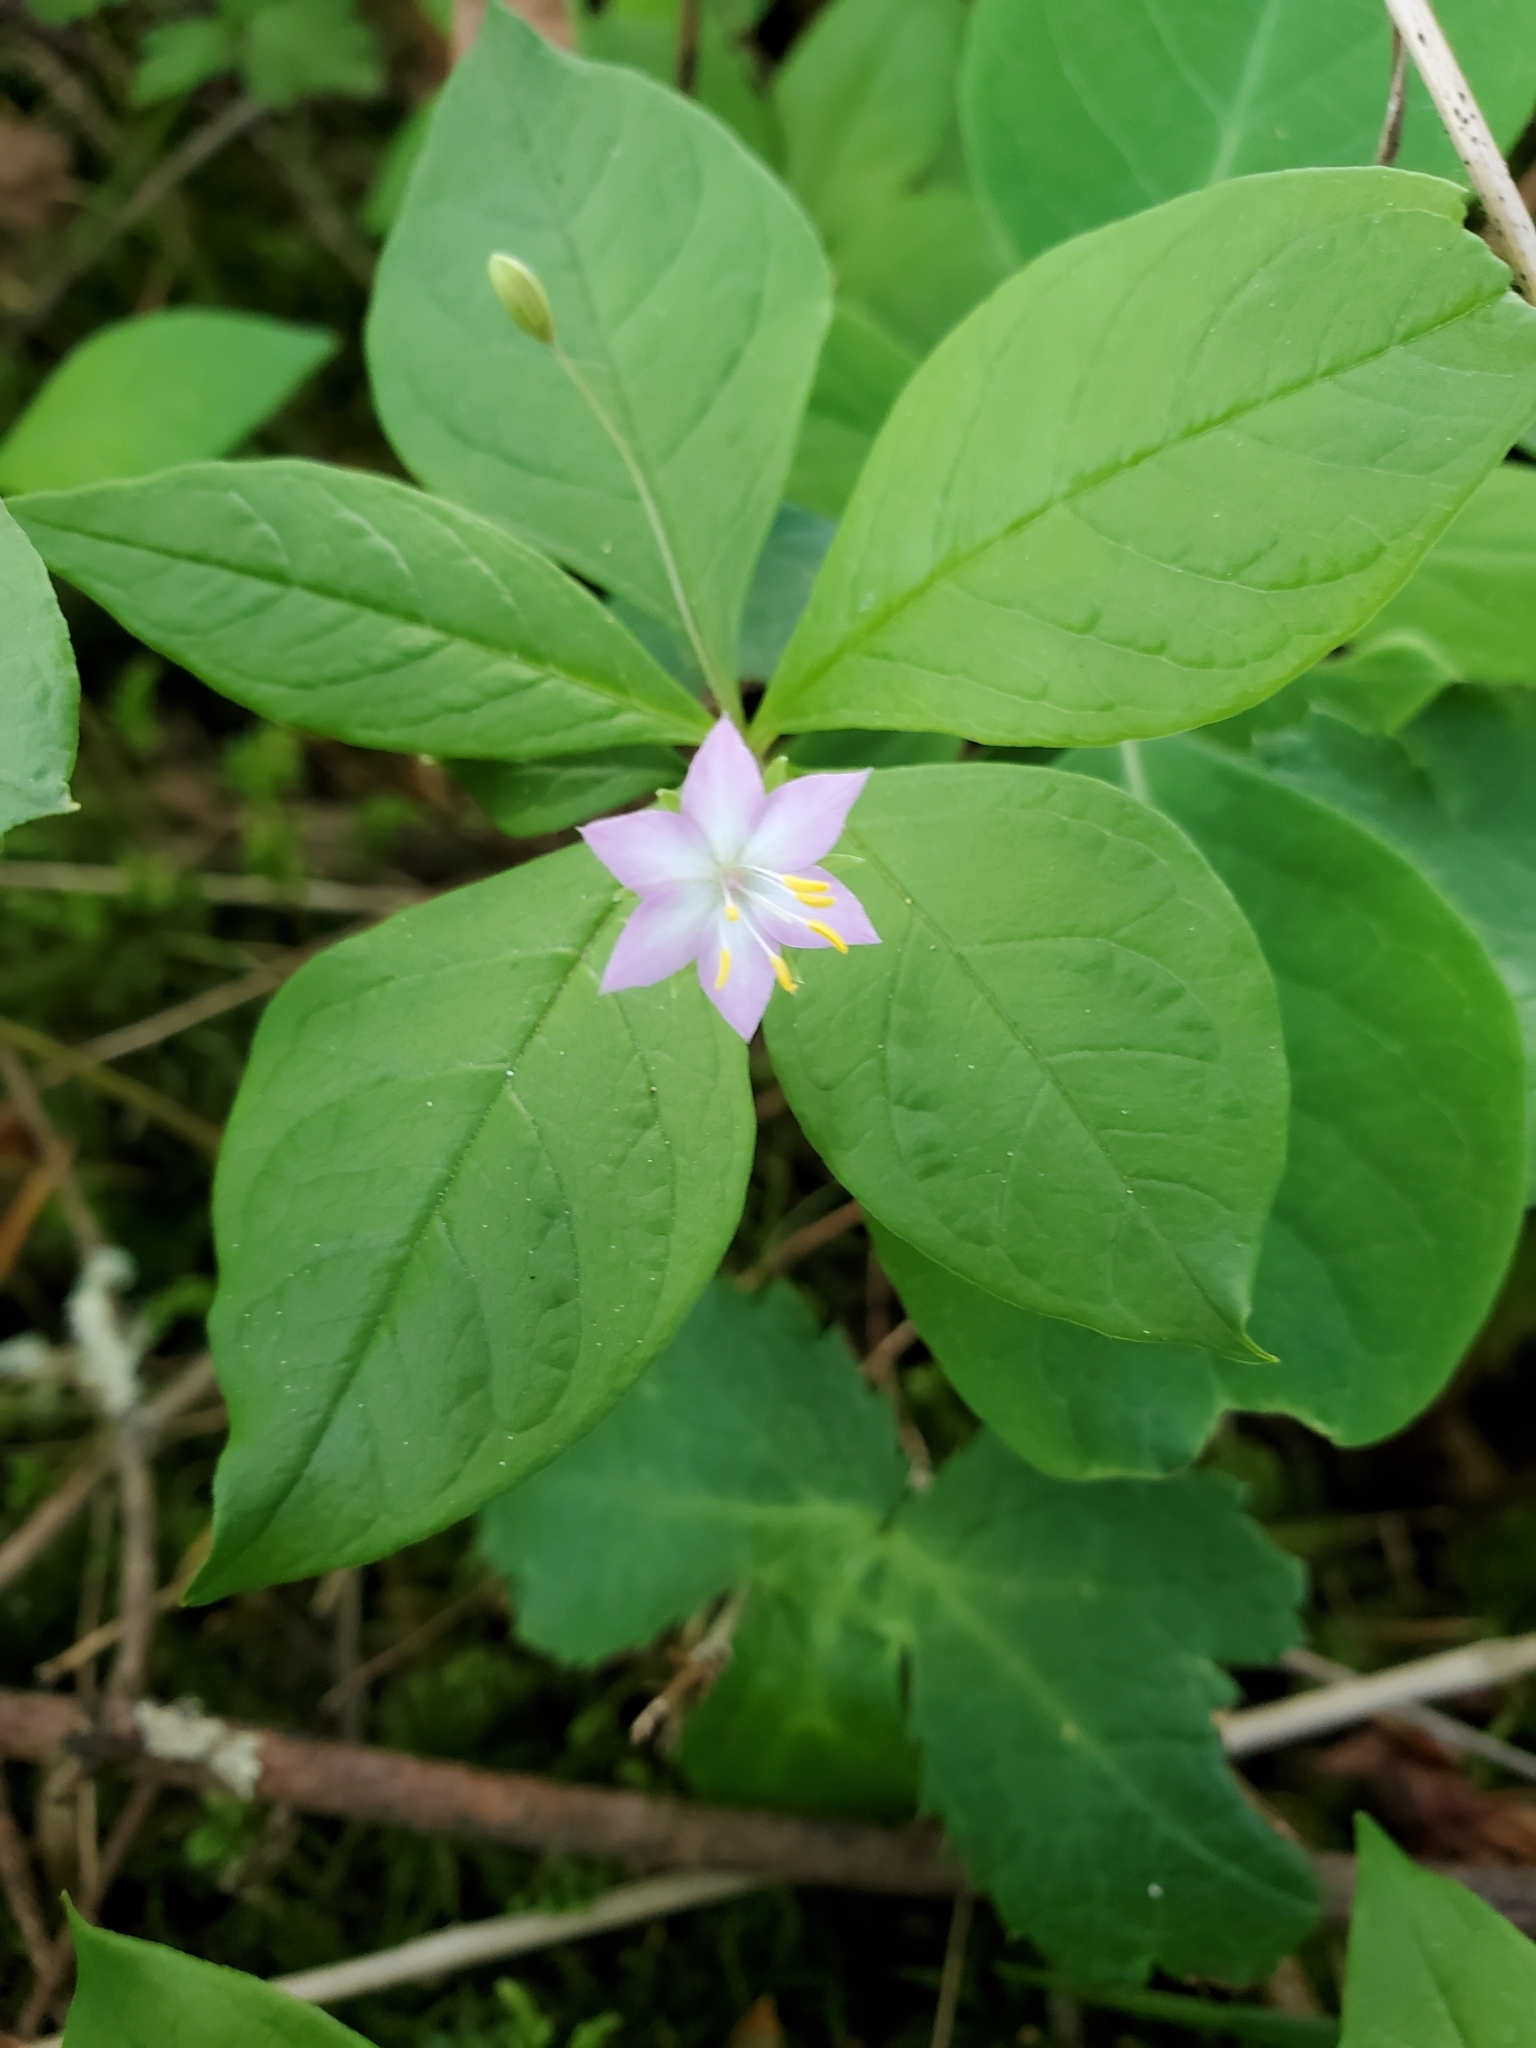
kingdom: Plantae
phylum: Tracheophyta
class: Magnoliopsida
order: Ericales
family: Primulaceae
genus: Lysimachia
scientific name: Lysimachia latifolia
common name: Pacific starflower
